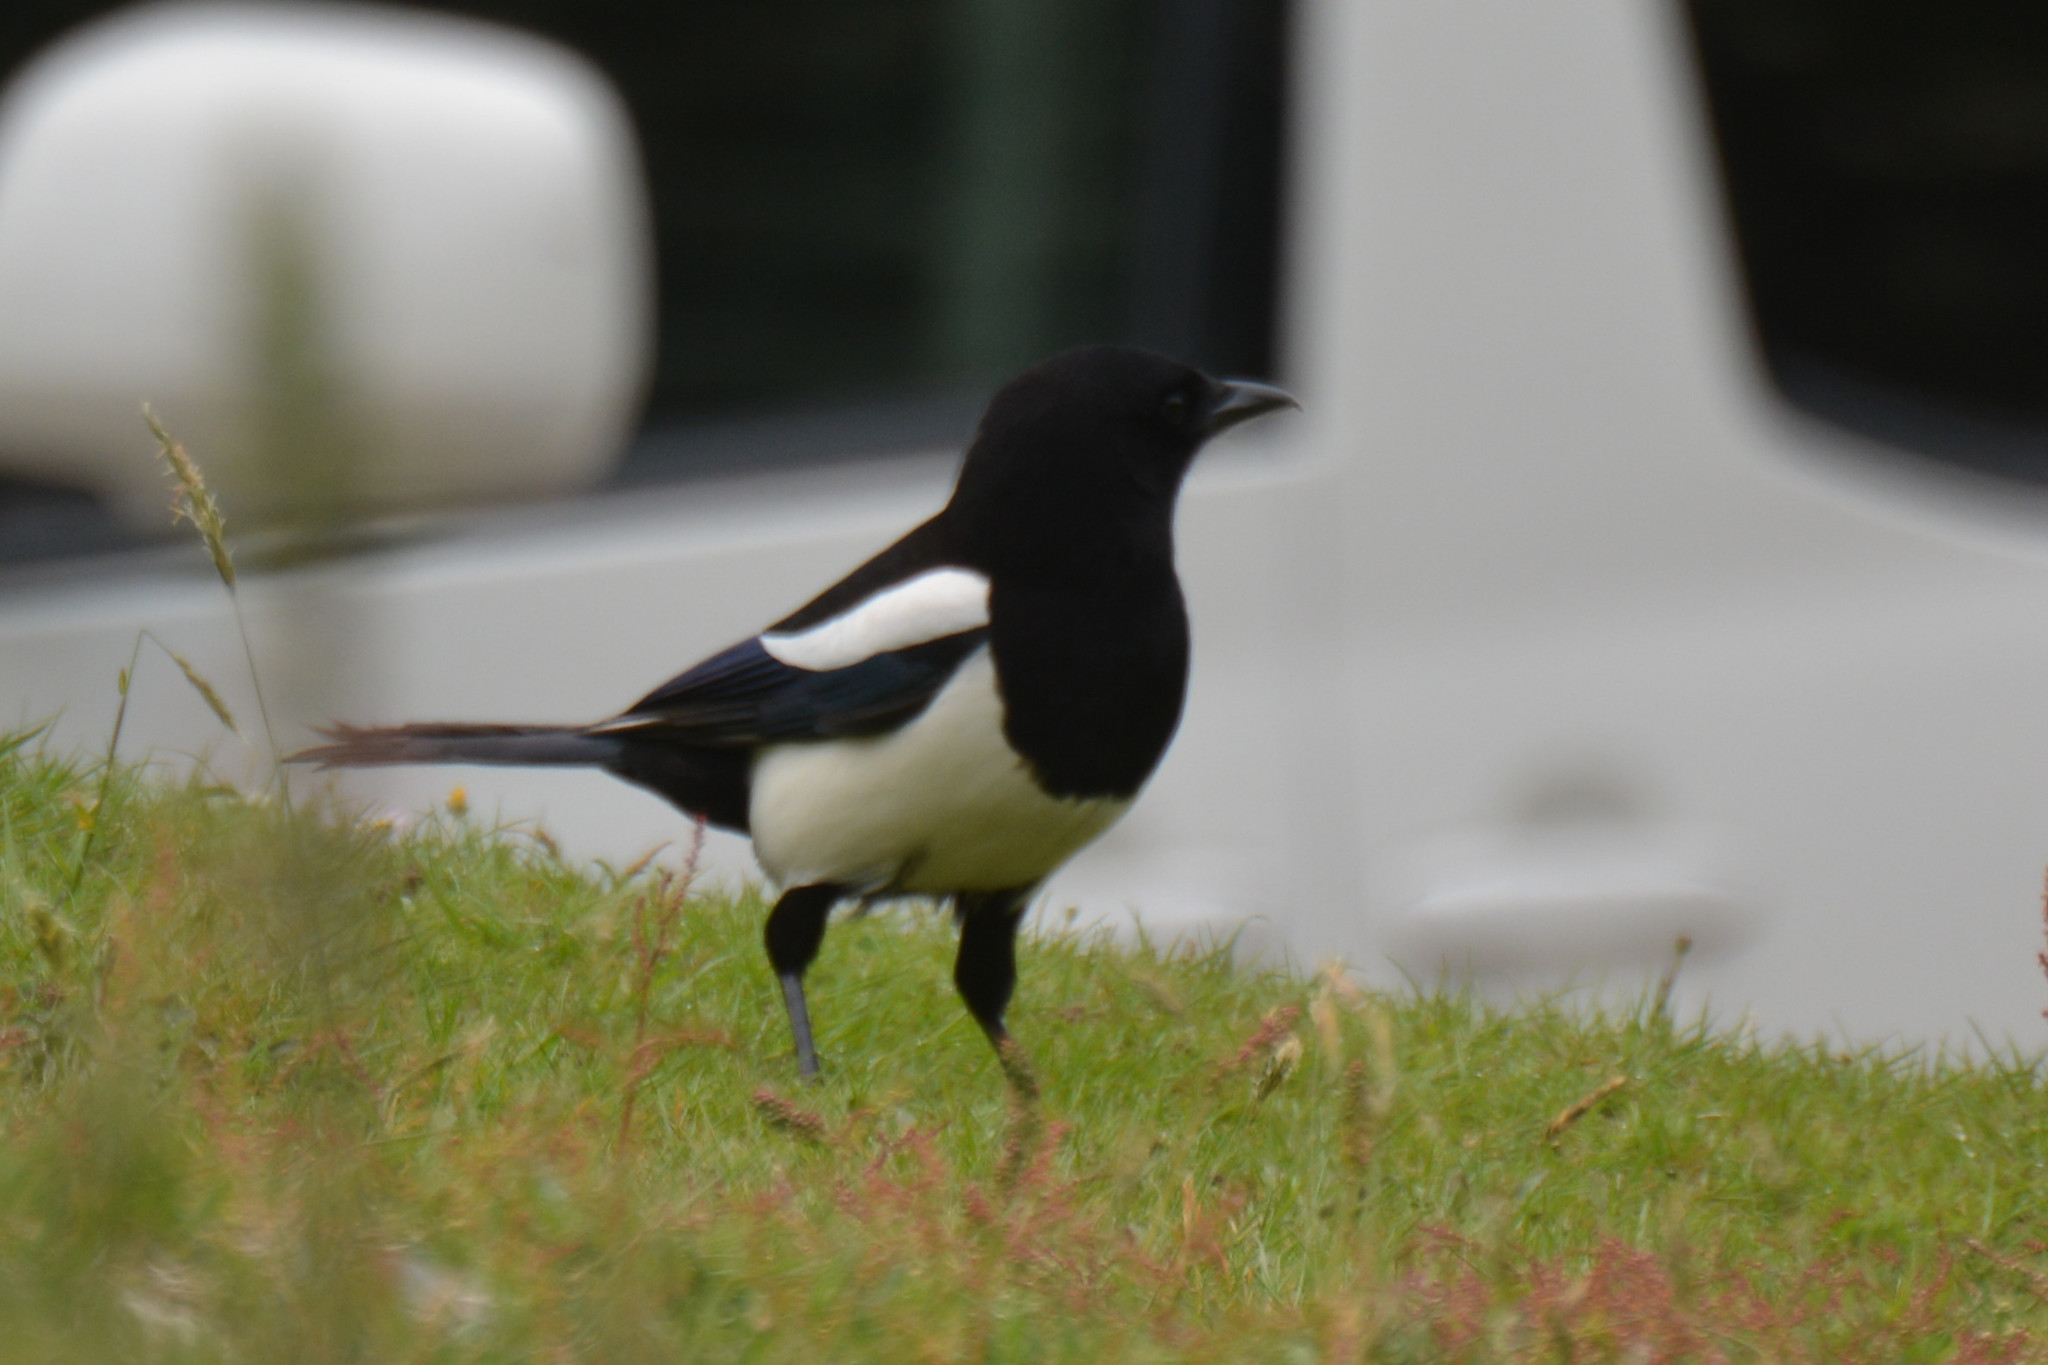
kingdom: Animalia
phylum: Chordata
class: Aves
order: Passeriformes
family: Corvidae
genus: Pica
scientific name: Pica pica
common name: Eurasian magpie
